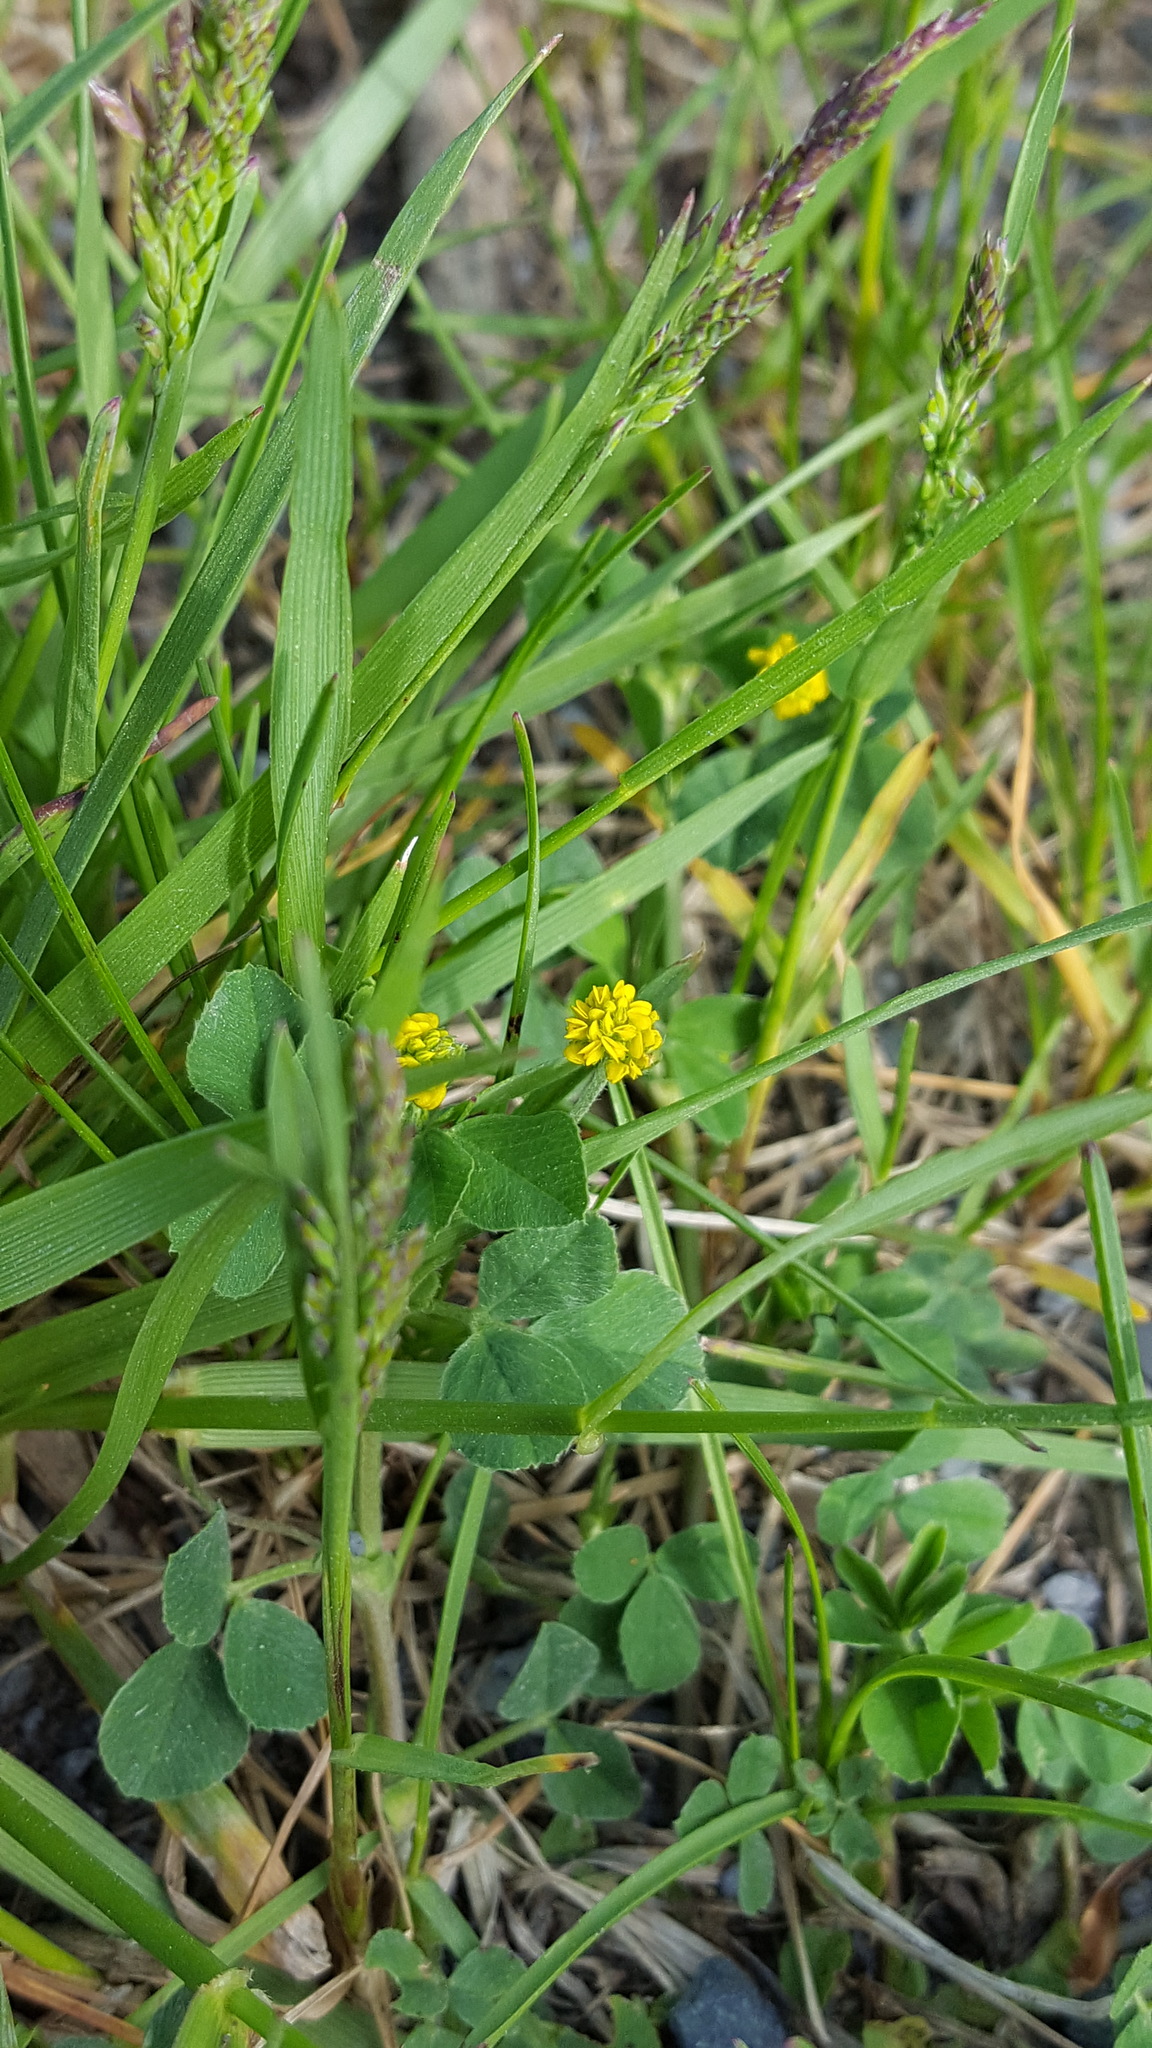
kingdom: Plantae
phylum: Tracheophyta
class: Magnoliopsida
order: Fabales
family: Fabaceae
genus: Medicago
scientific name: Medicago lupulina
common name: Black medick
